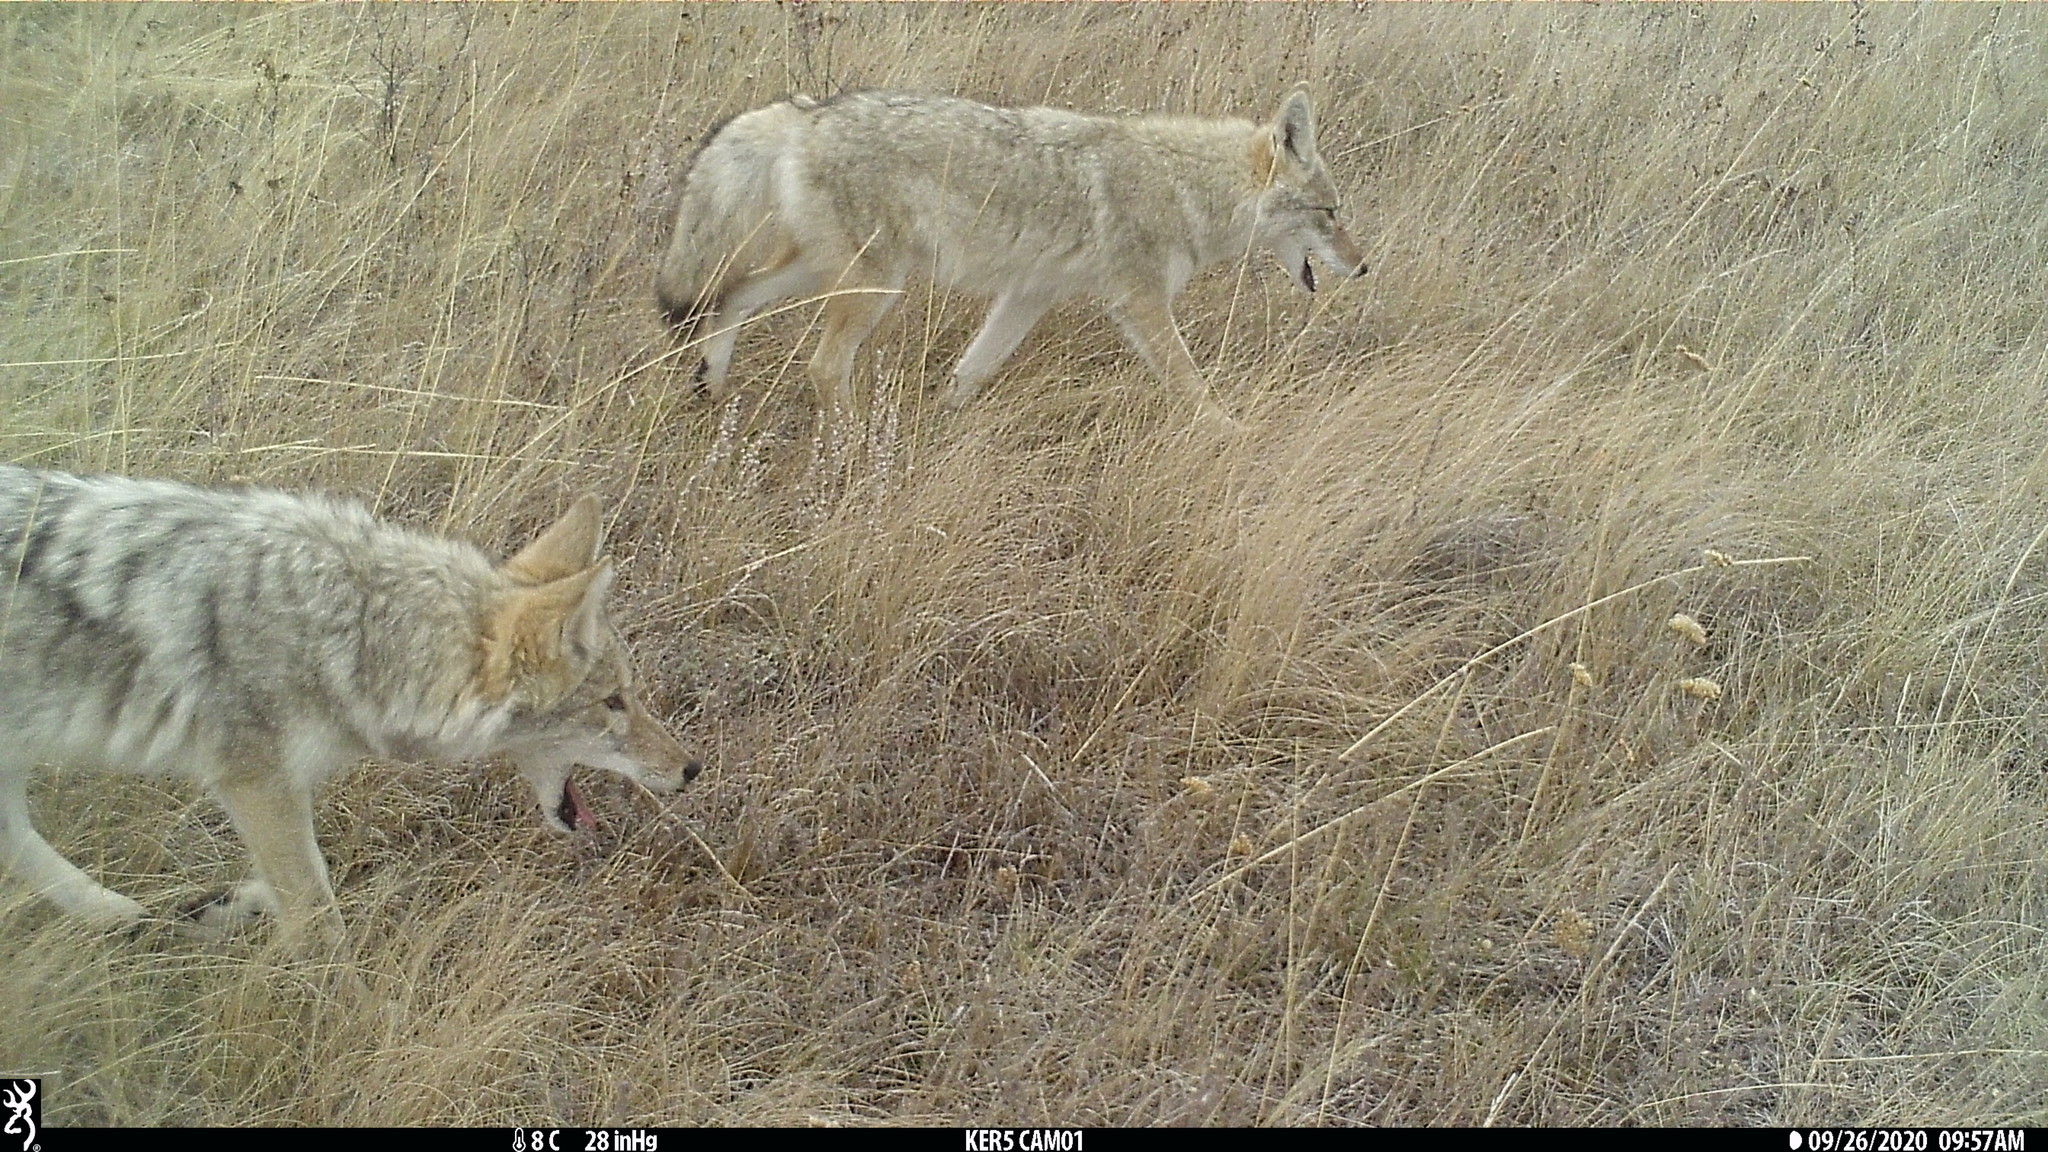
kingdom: Animalia
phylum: Chordata
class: Mammalia
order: Carnivora
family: Canidae
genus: Canis
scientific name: Canis latrans
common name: Coyote
